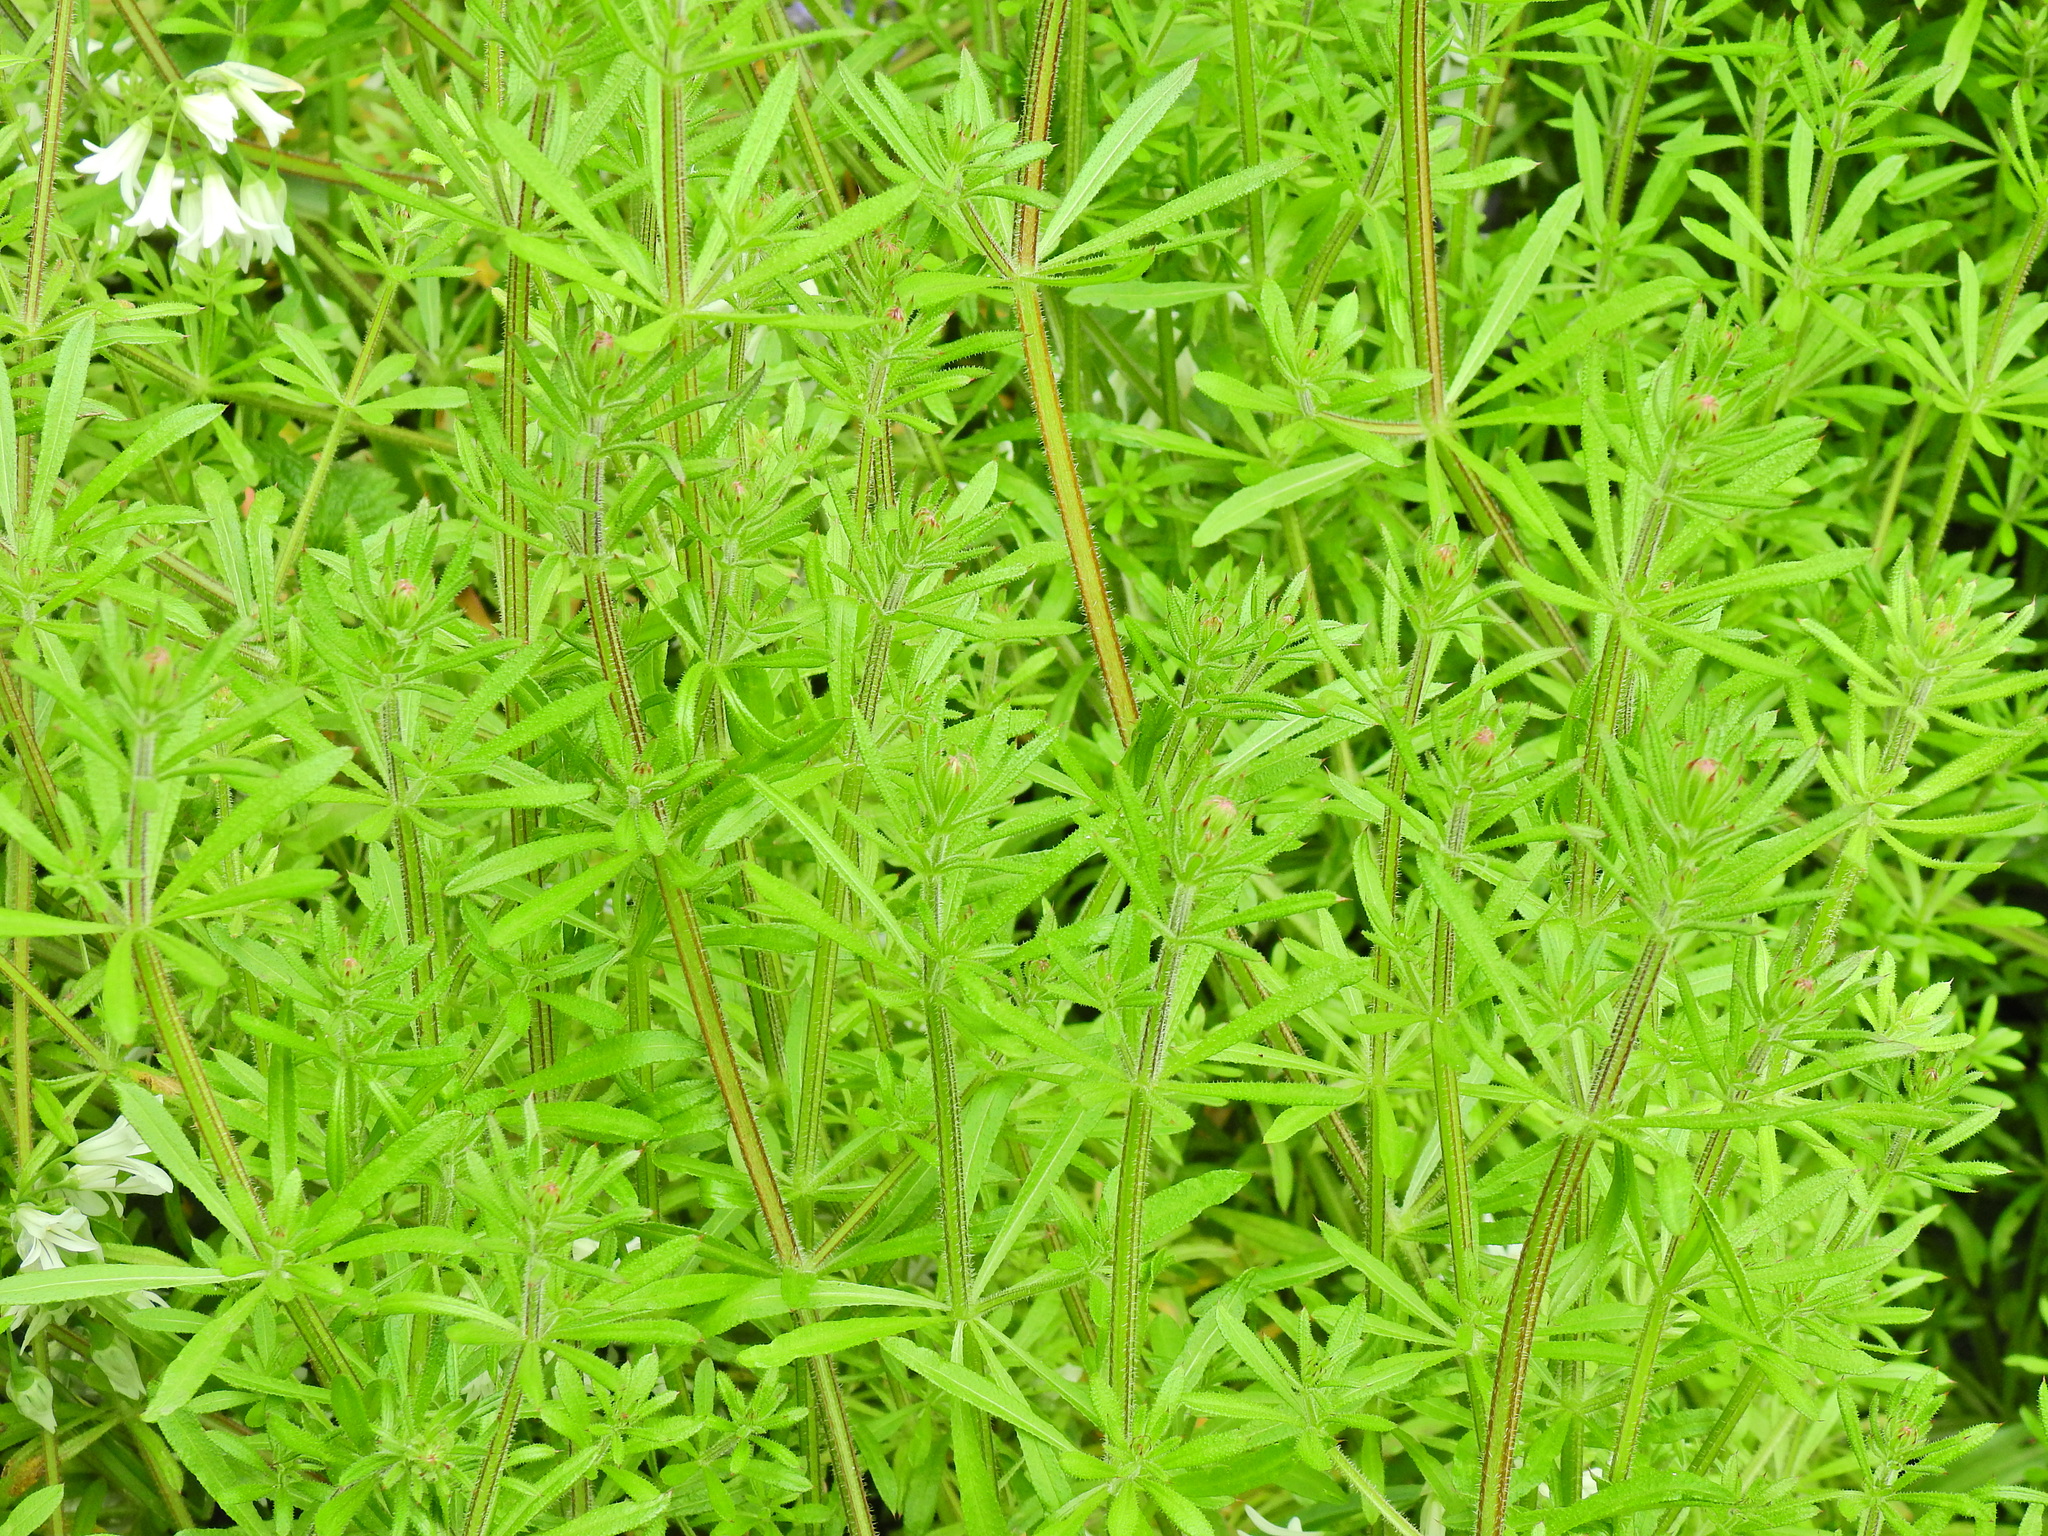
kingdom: Plantae
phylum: Tracheophyta
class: Magnoliopsida
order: Gentianales
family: Rubiaceae
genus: Galium
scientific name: Galium aparine
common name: Cleavers
